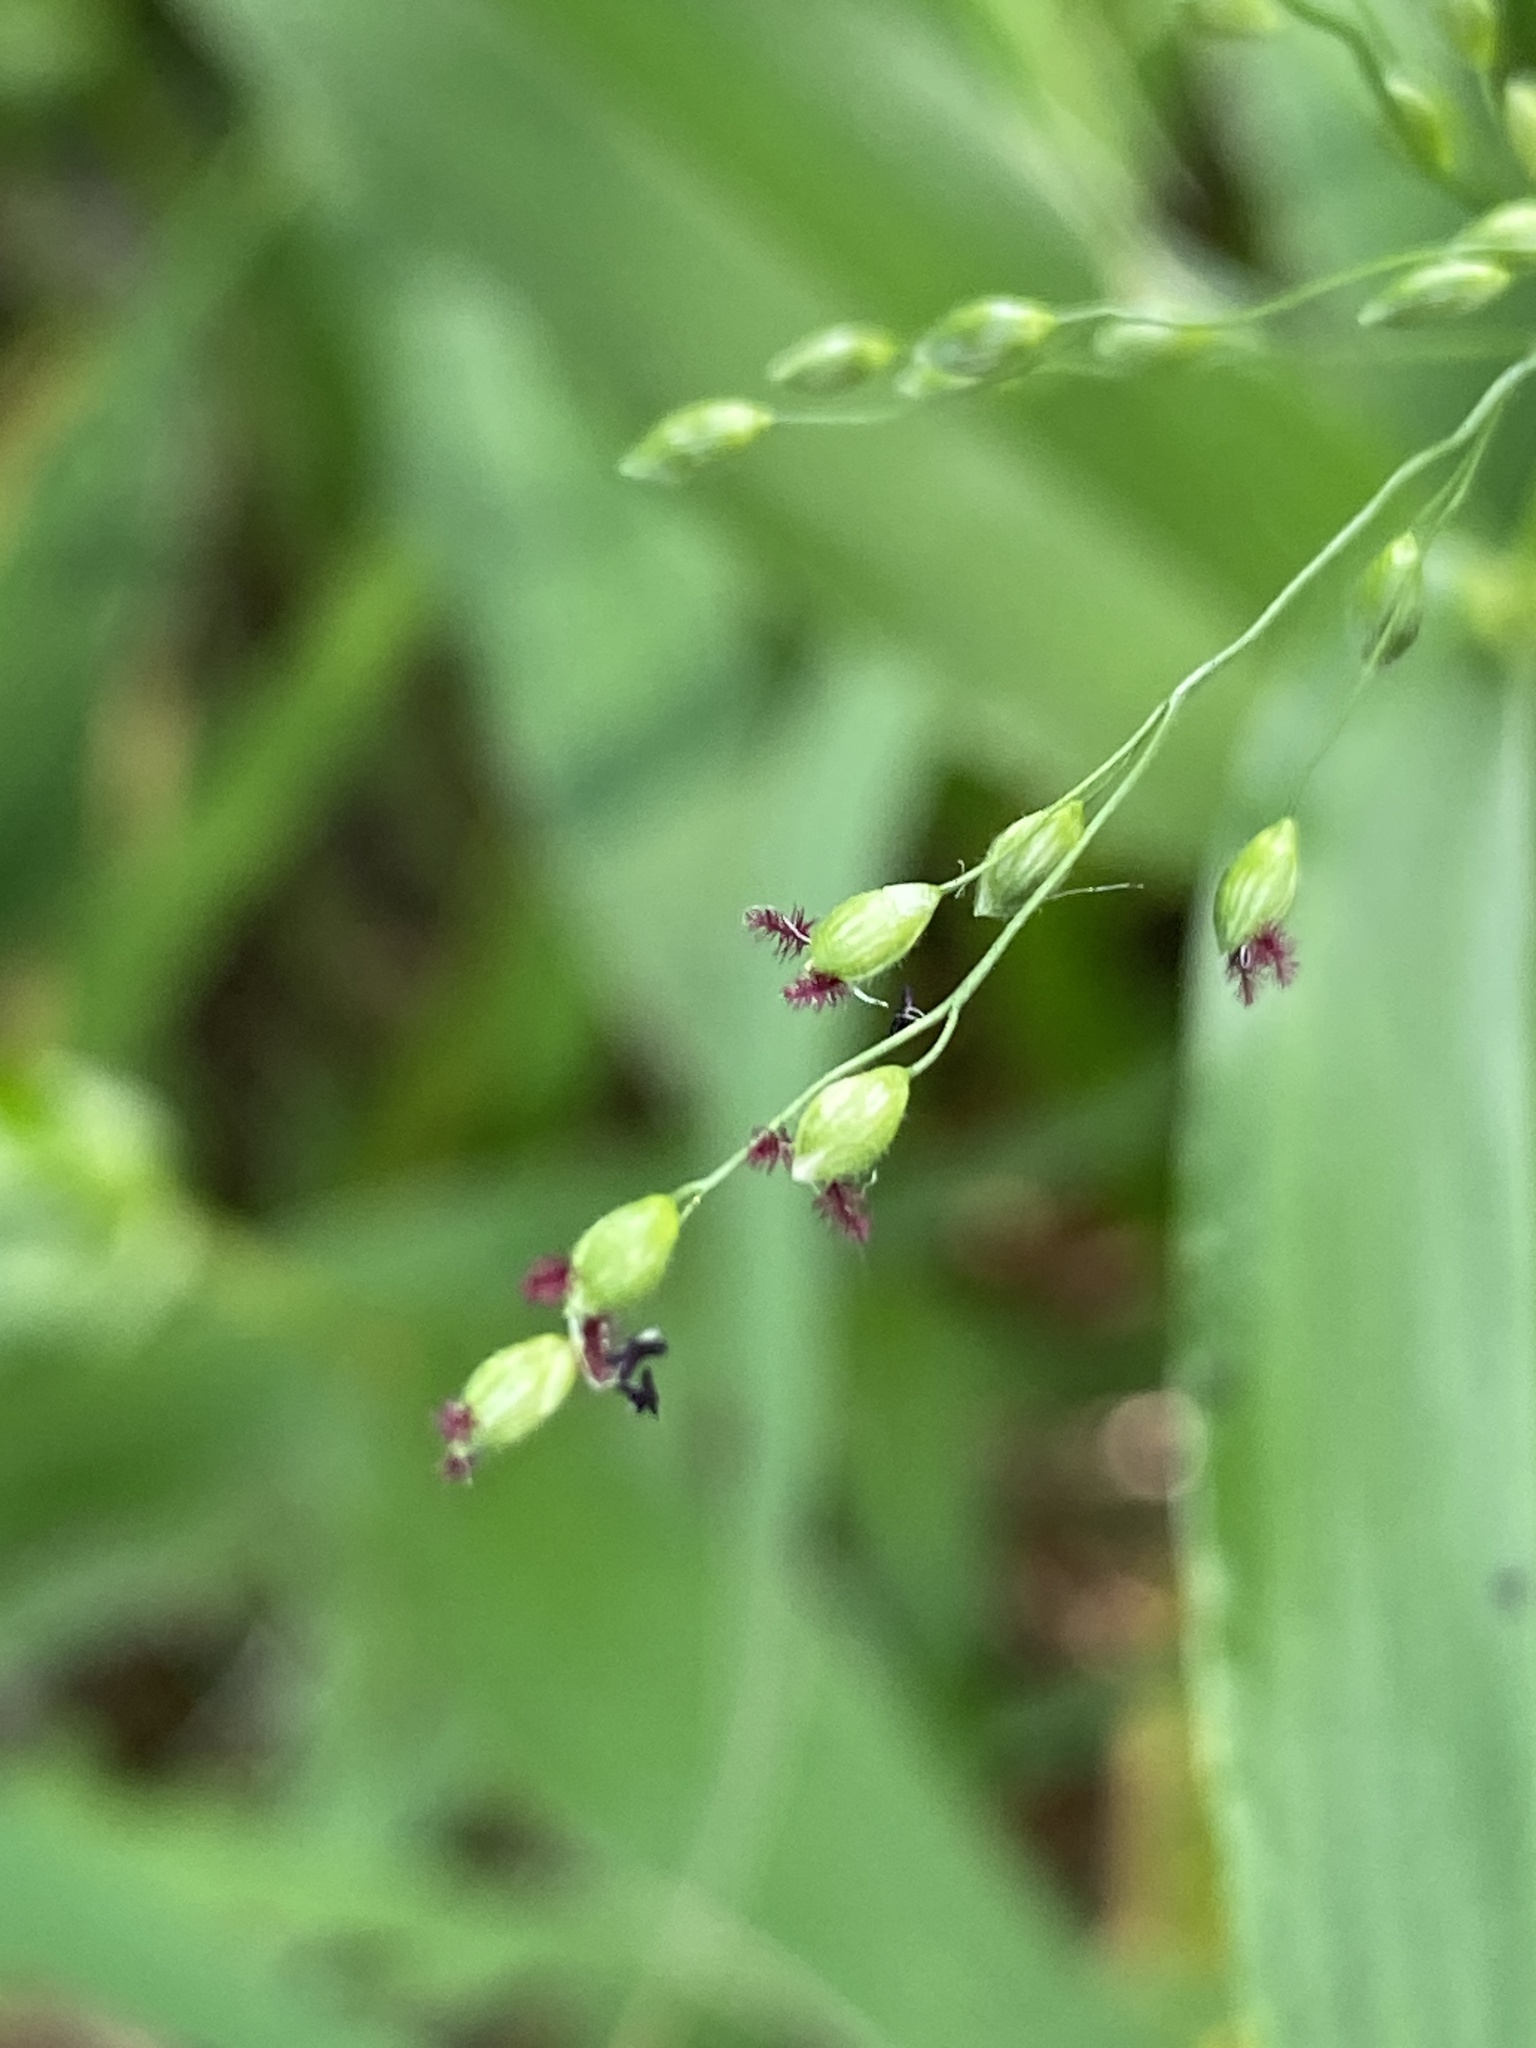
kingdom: Plantae
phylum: Tracheophyta
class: Liliopsida
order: Poales
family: Poaceae
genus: Dichanthelium
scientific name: Dichanthelium clandestinum
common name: Deer-tongue grass
